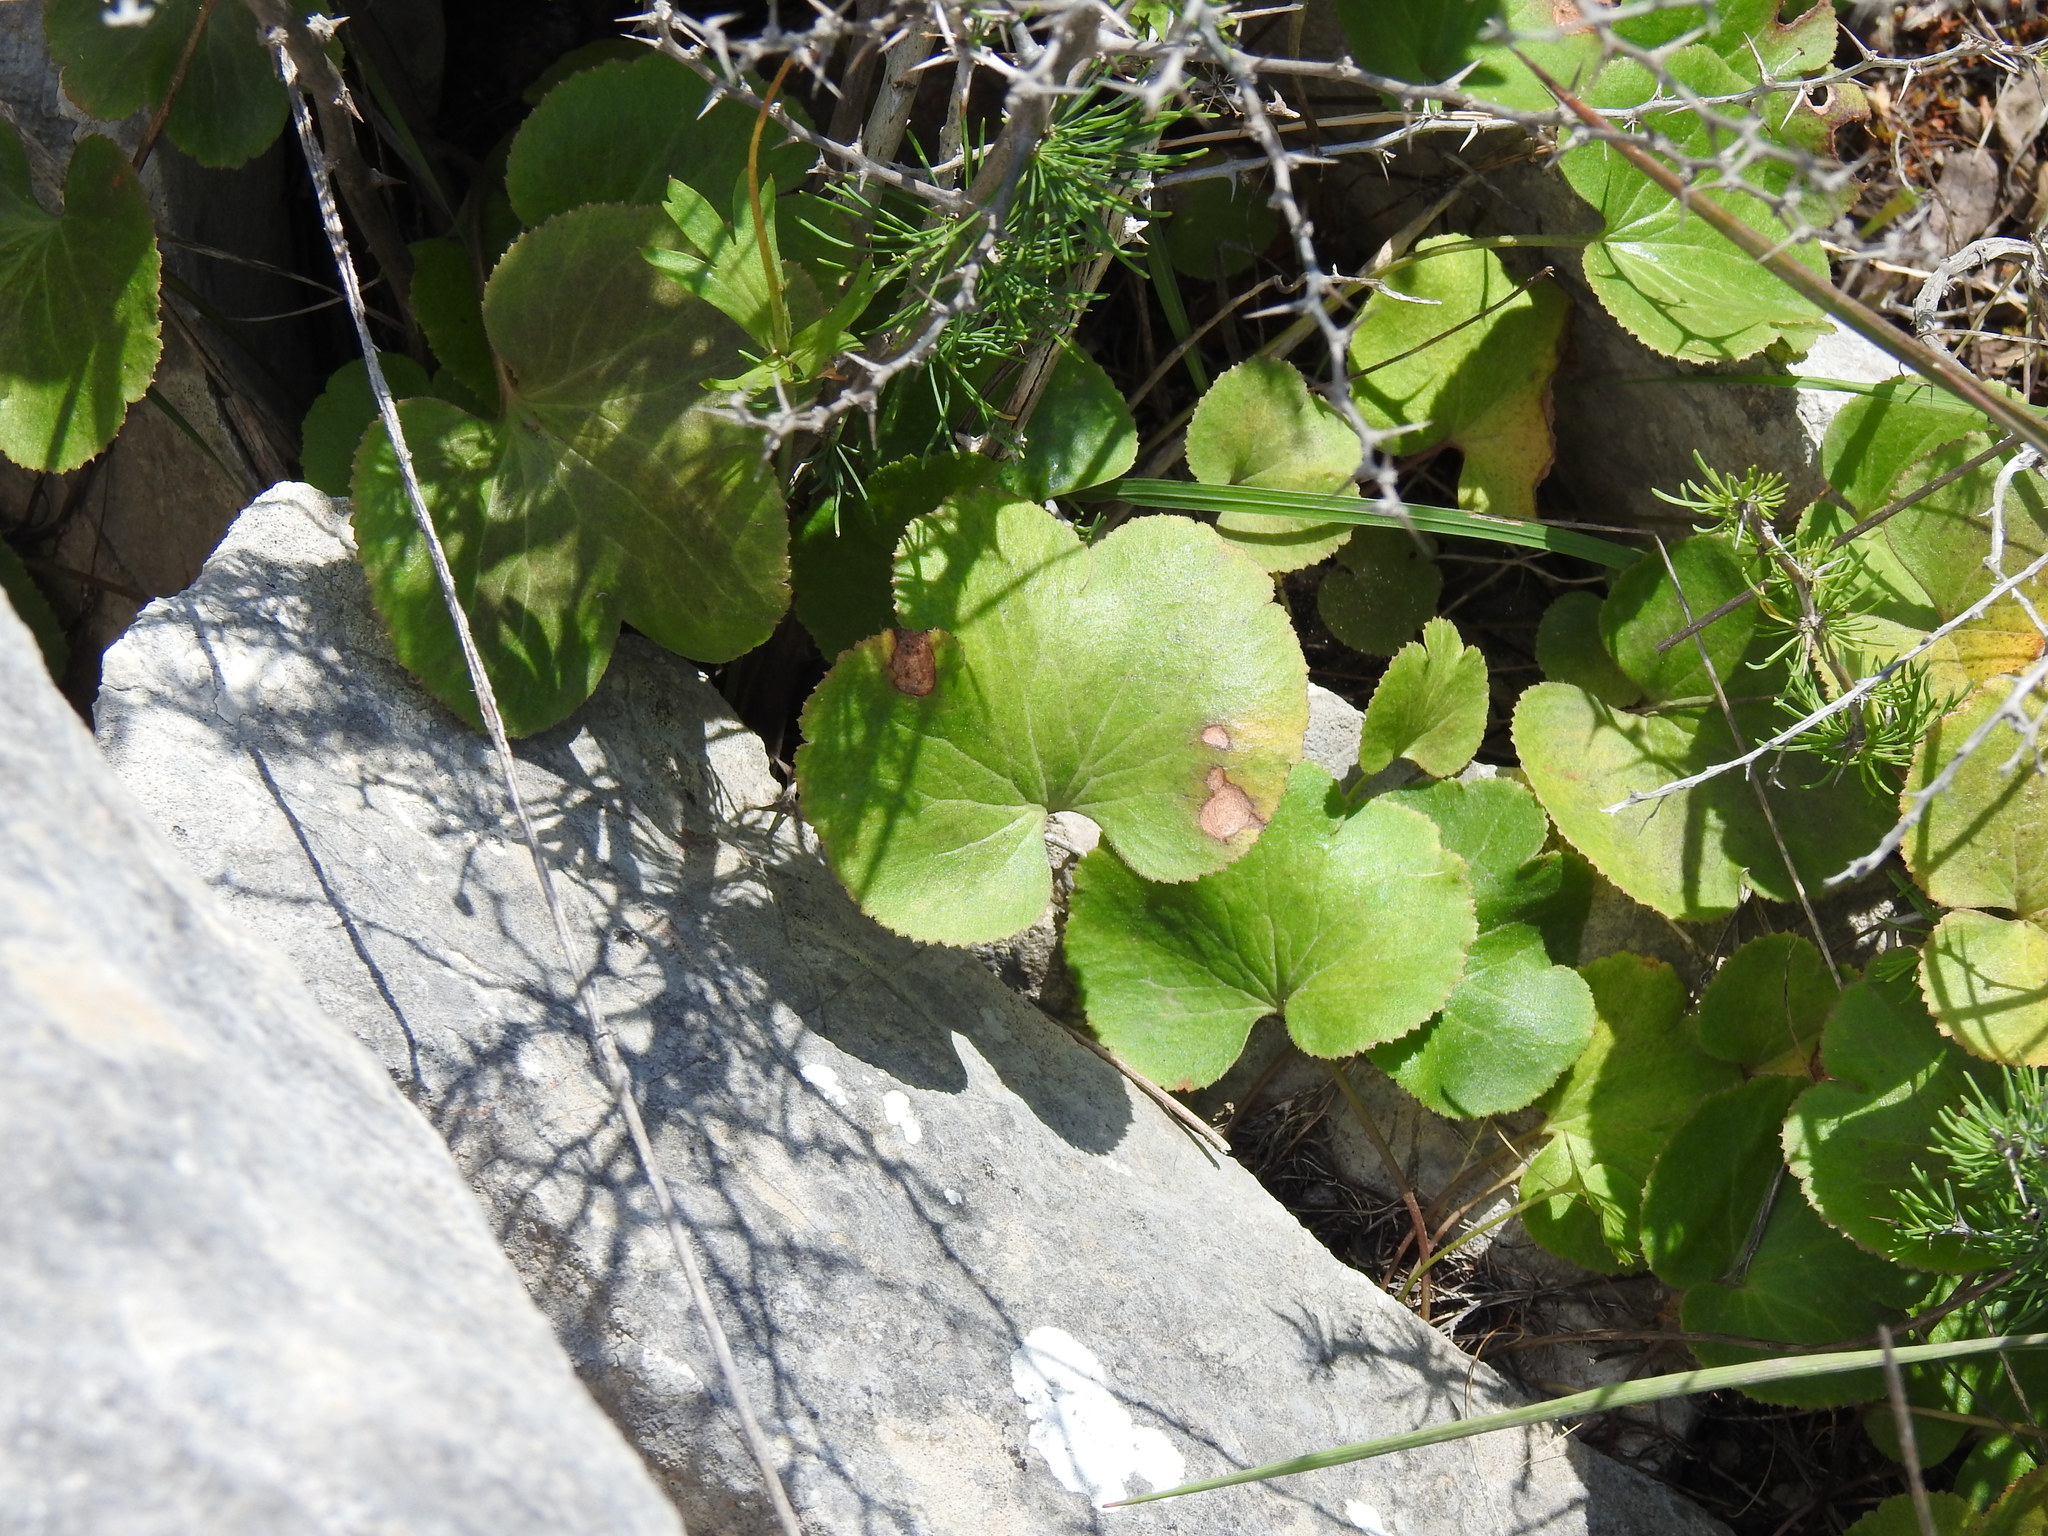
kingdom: Plantae
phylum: Tracheophyta
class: Magnoliopsida
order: Ranunculales
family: Ranunculaceae
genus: Anemone
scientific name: Anemone palmata
